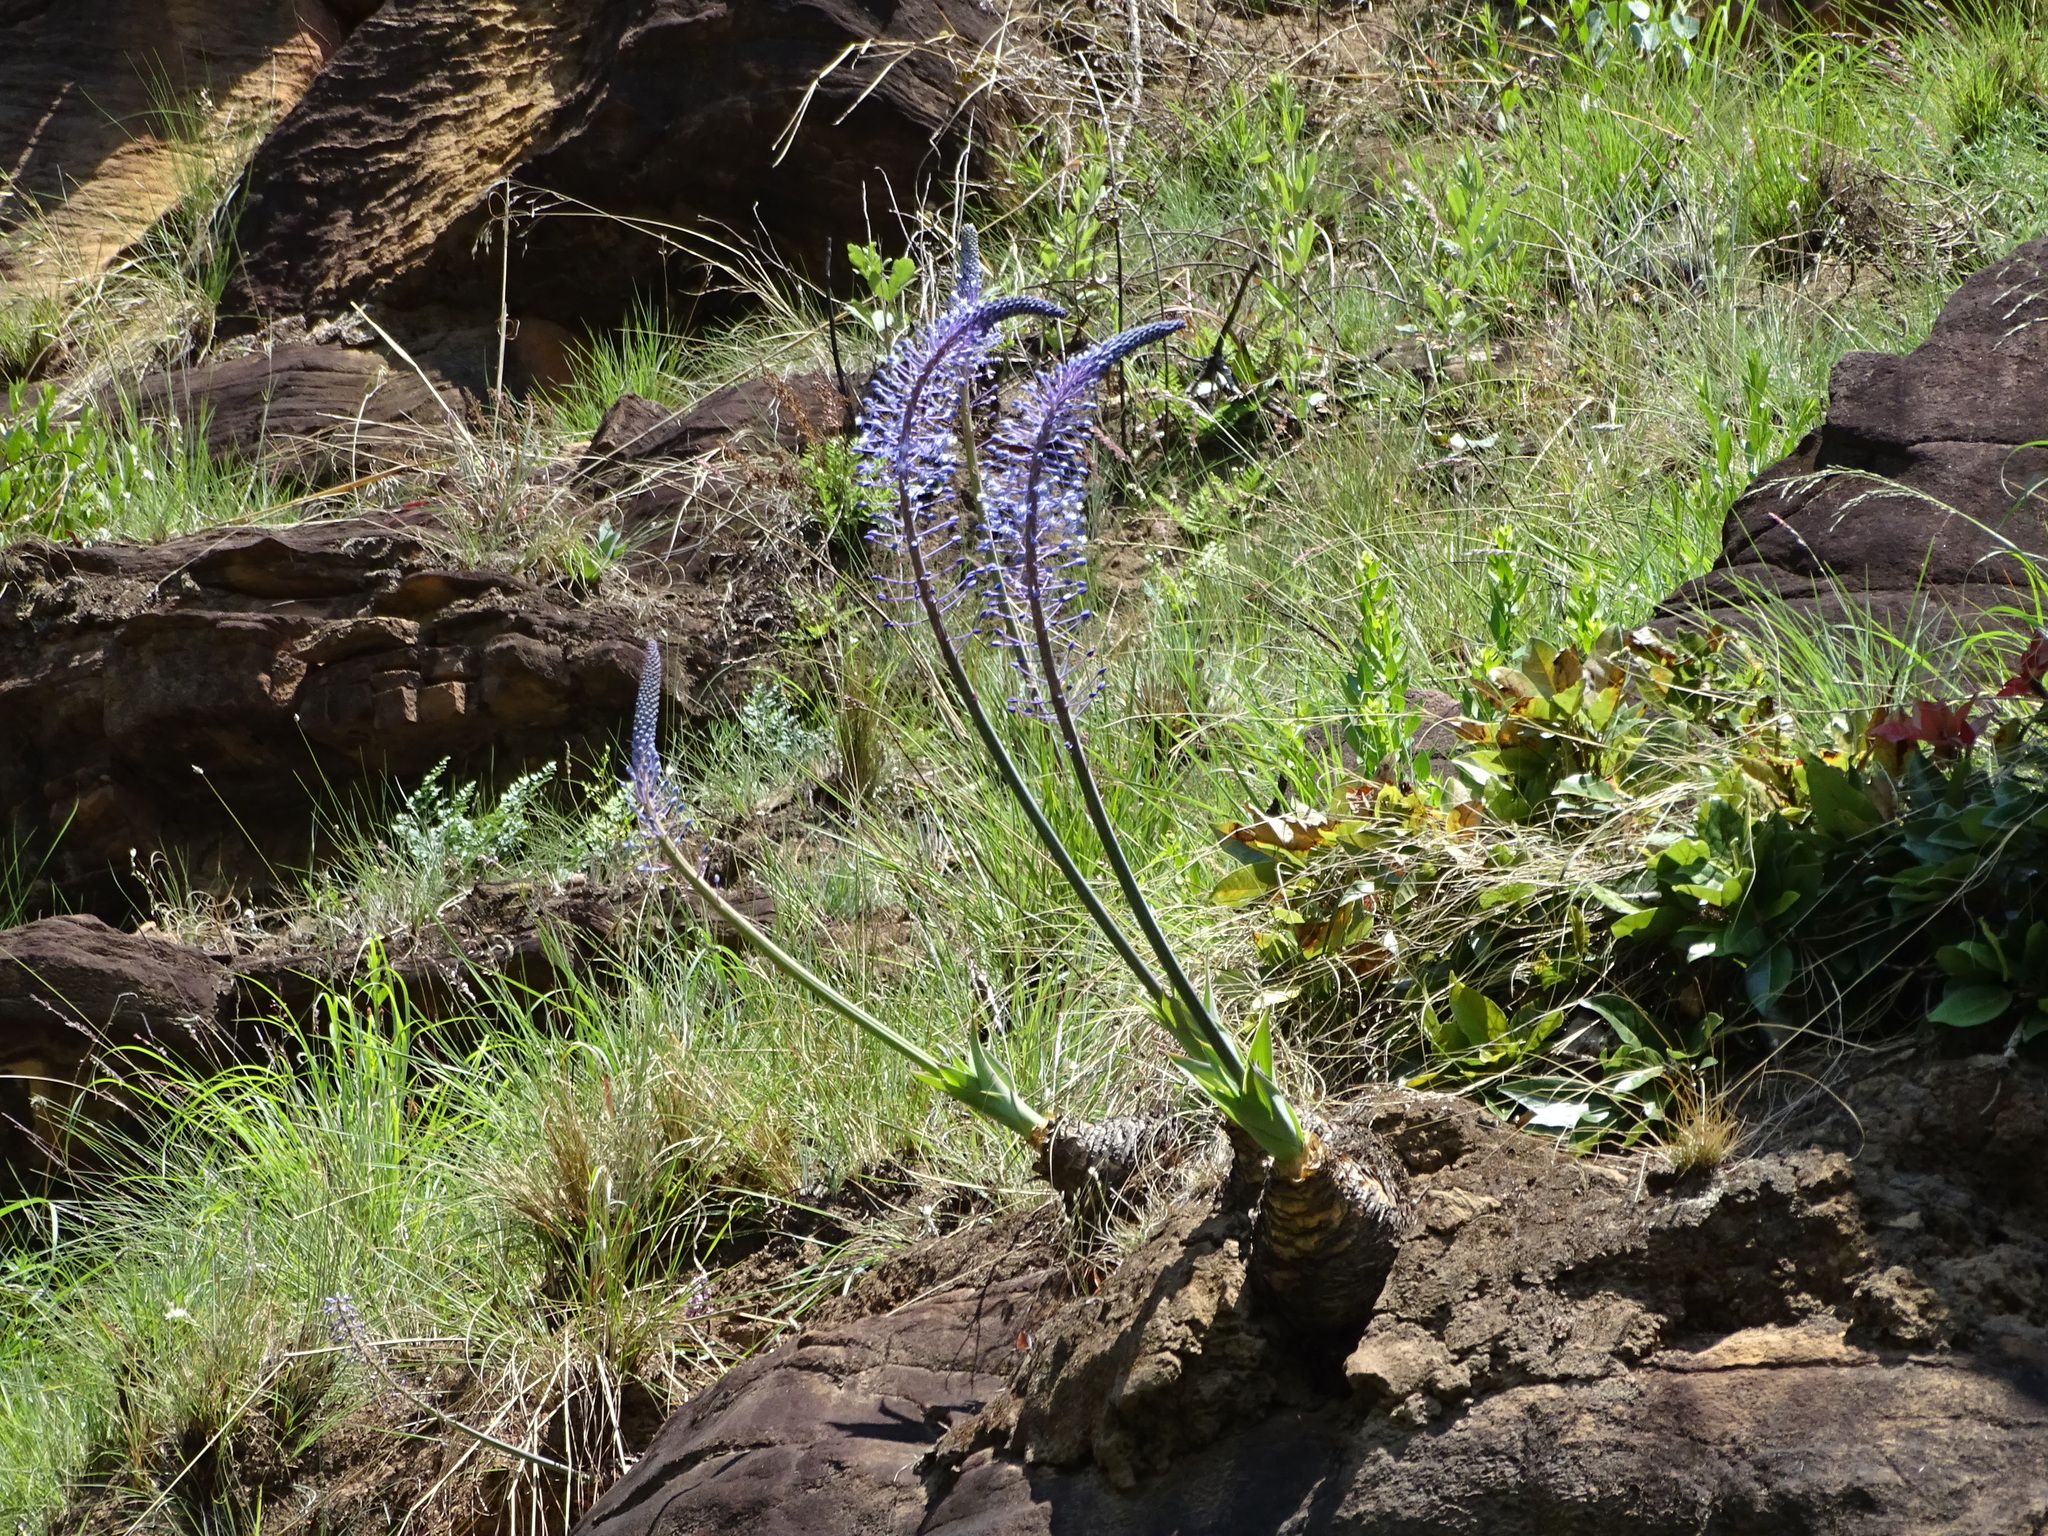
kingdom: Plantae
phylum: Tracheophyta
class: Liliopsida
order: Asparagales
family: Asparagaceae
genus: Merwilla
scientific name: Merwilla plumbea
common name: Blue-squill
